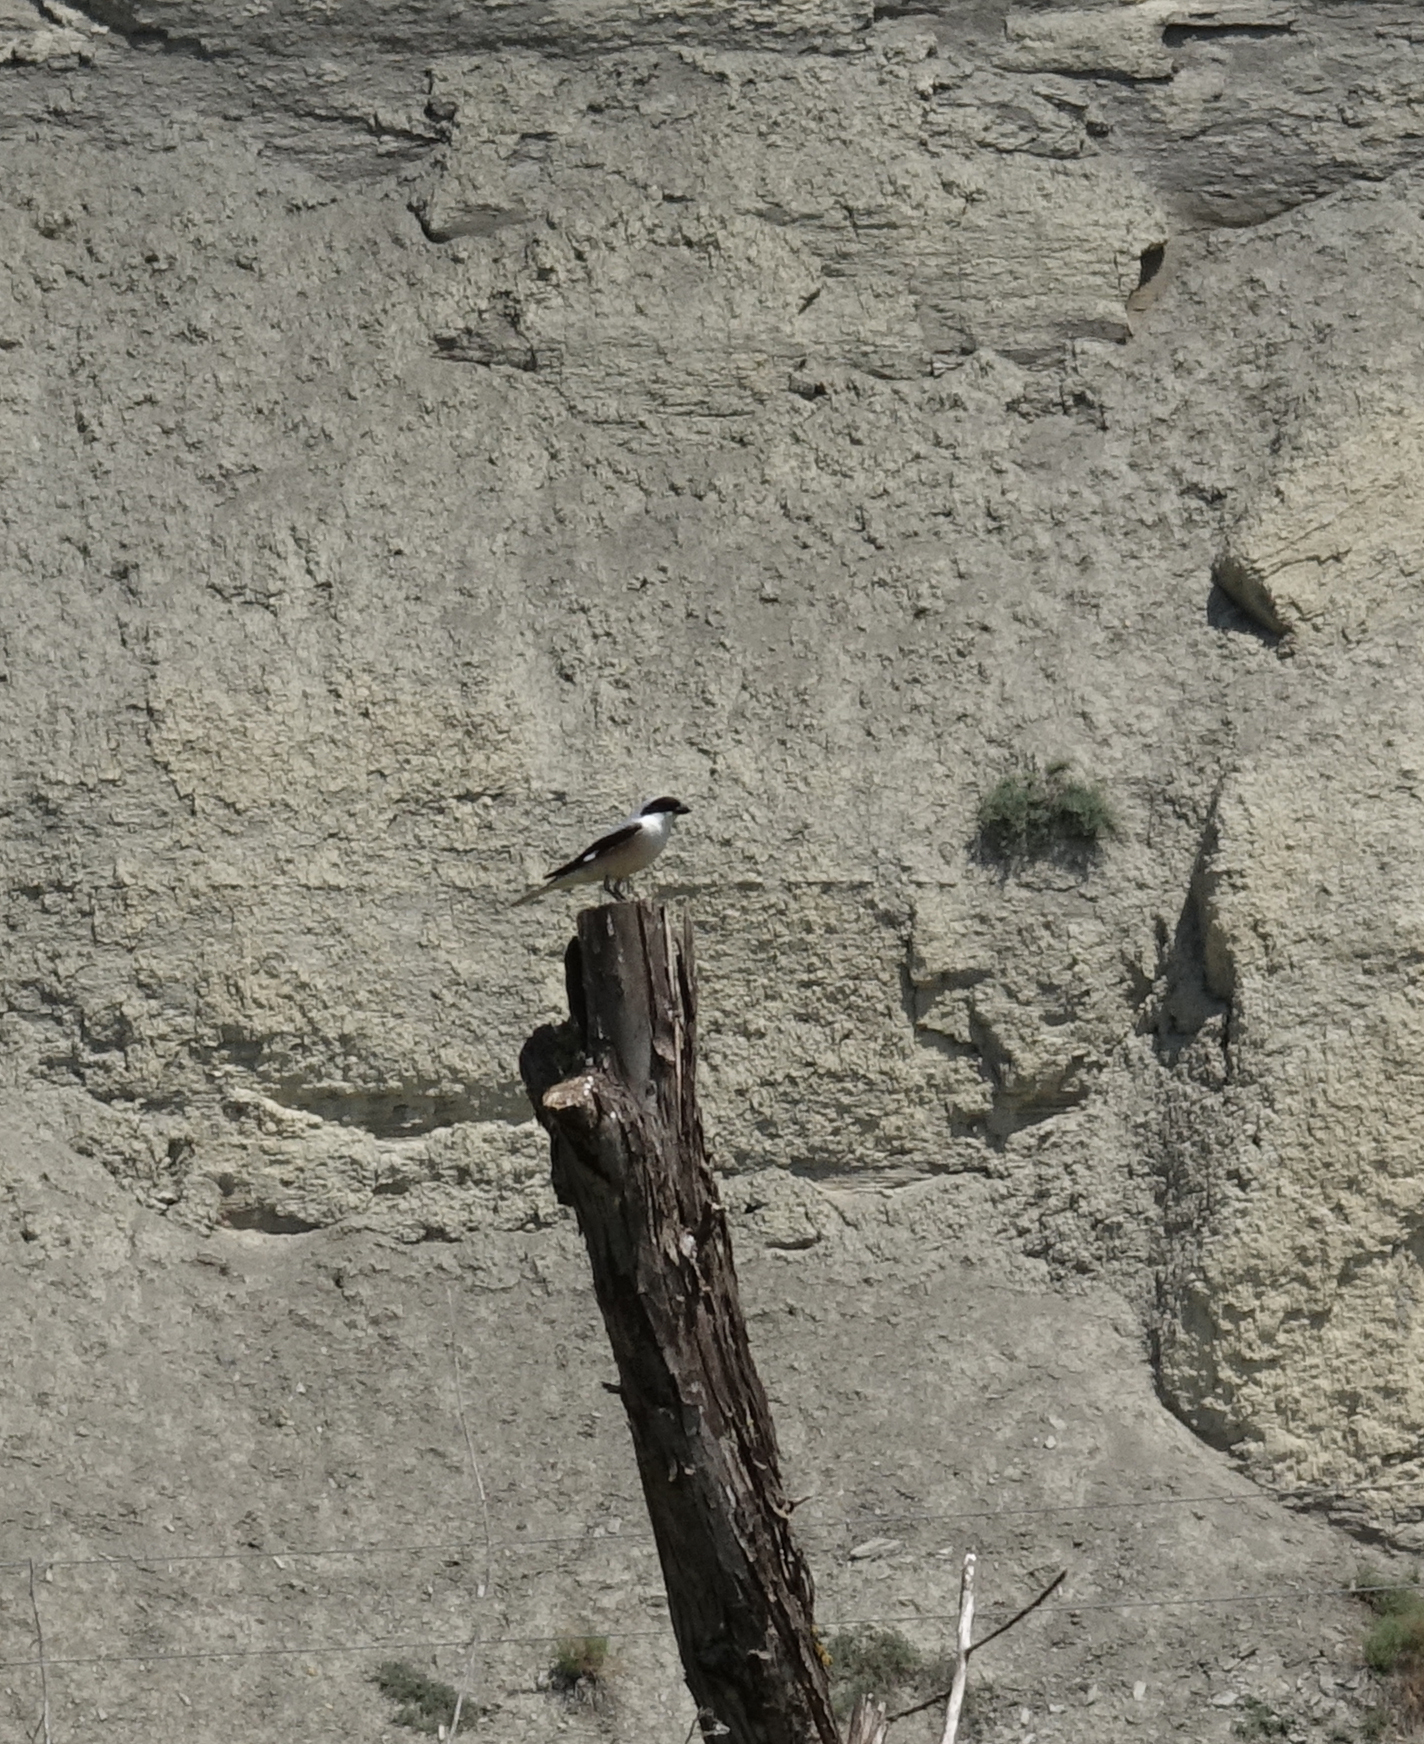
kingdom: Animalia
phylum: Chordata
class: Aves
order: Passeriformes
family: Laniidae
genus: Lanius
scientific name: Lanius minor
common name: Lesser grey shrike
